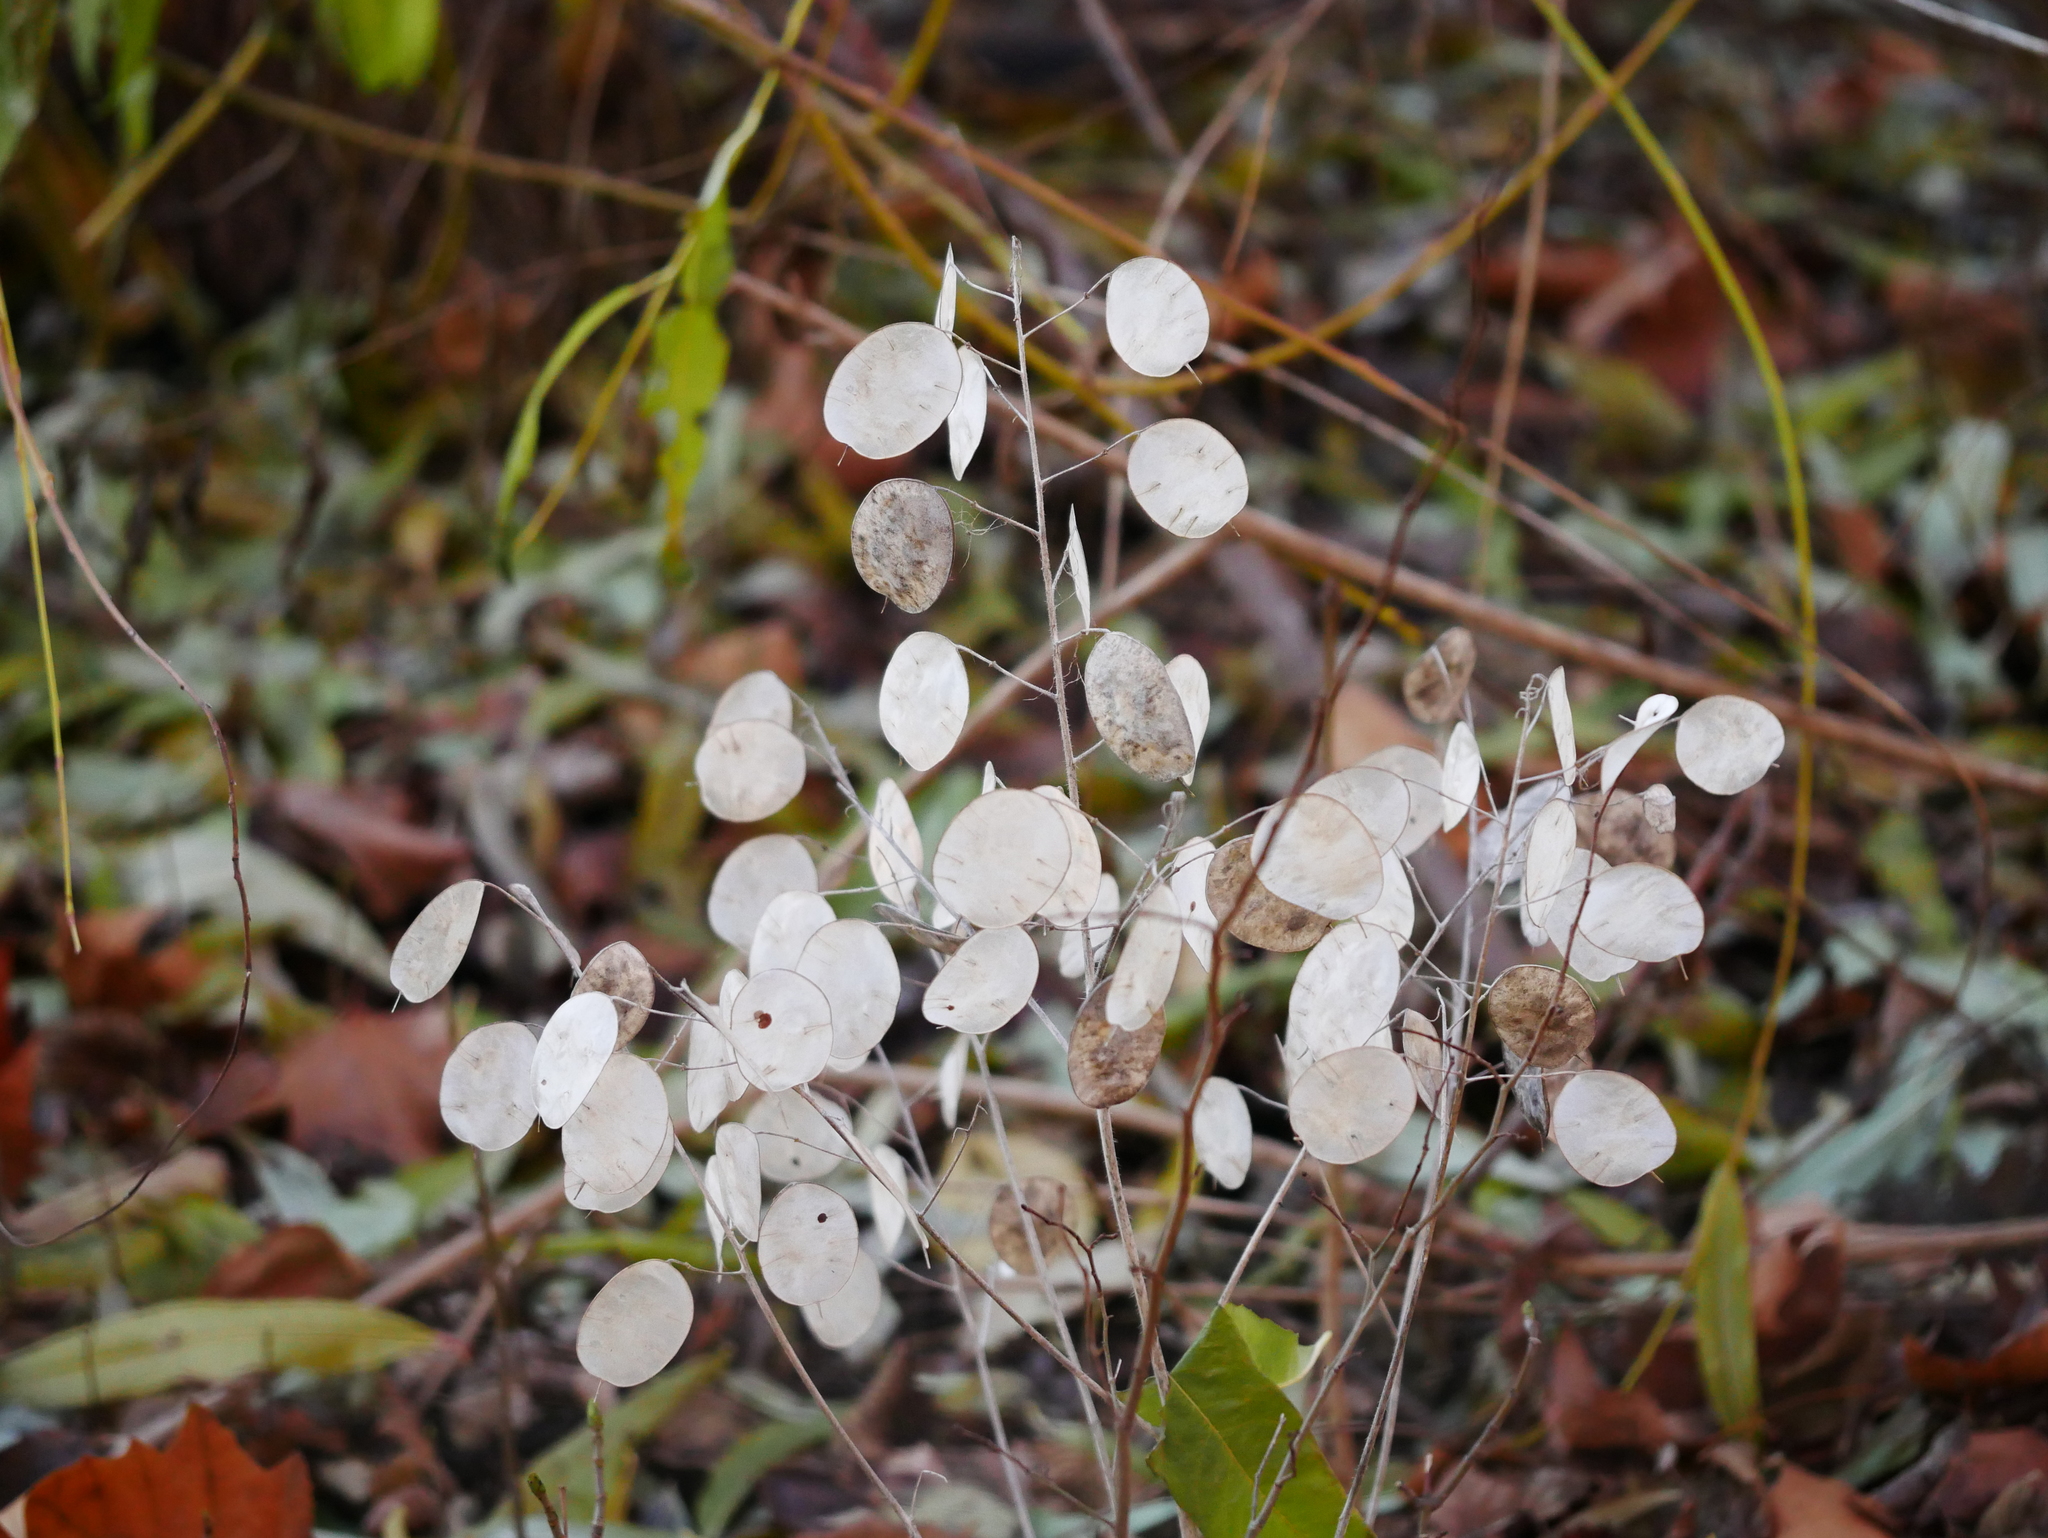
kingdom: Plantae
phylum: Tracheophyta
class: Magnoliopsida
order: Brassicales
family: Brassicaceae
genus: Lunaria
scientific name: Lunaria annua
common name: Honesty
